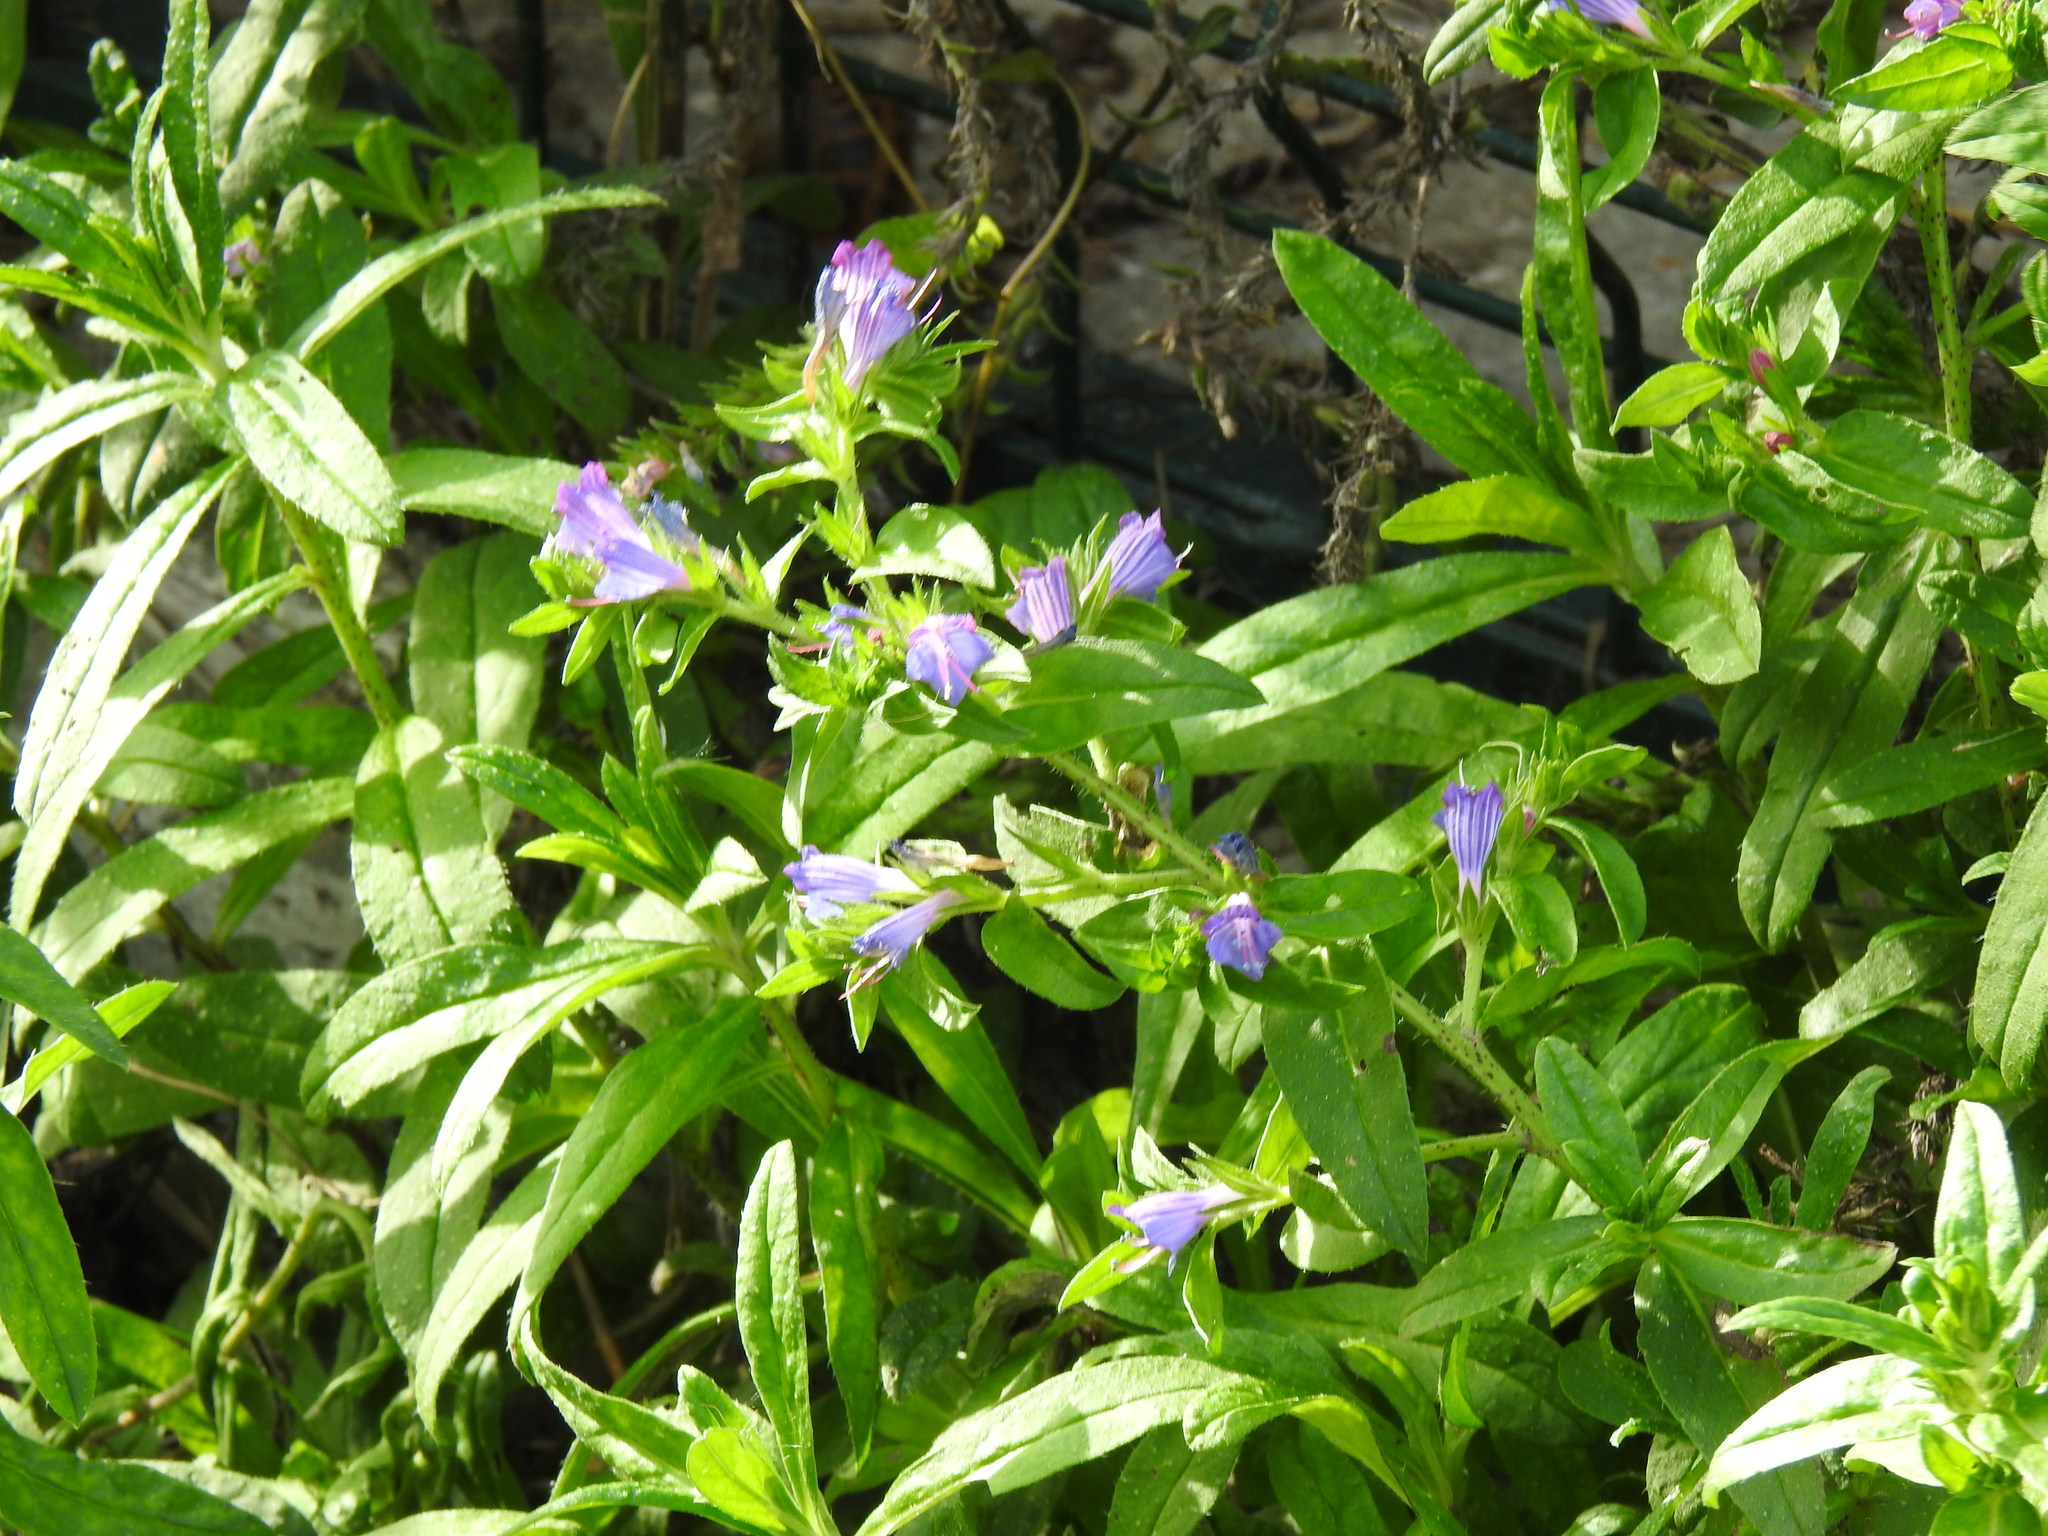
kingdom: Plantae
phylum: Tracheophyta
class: Magnoliopsida
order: Boraginales
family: Boraginaceae
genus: Echium
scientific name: Echium rosulatum
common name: Lax viper's-bugloss
